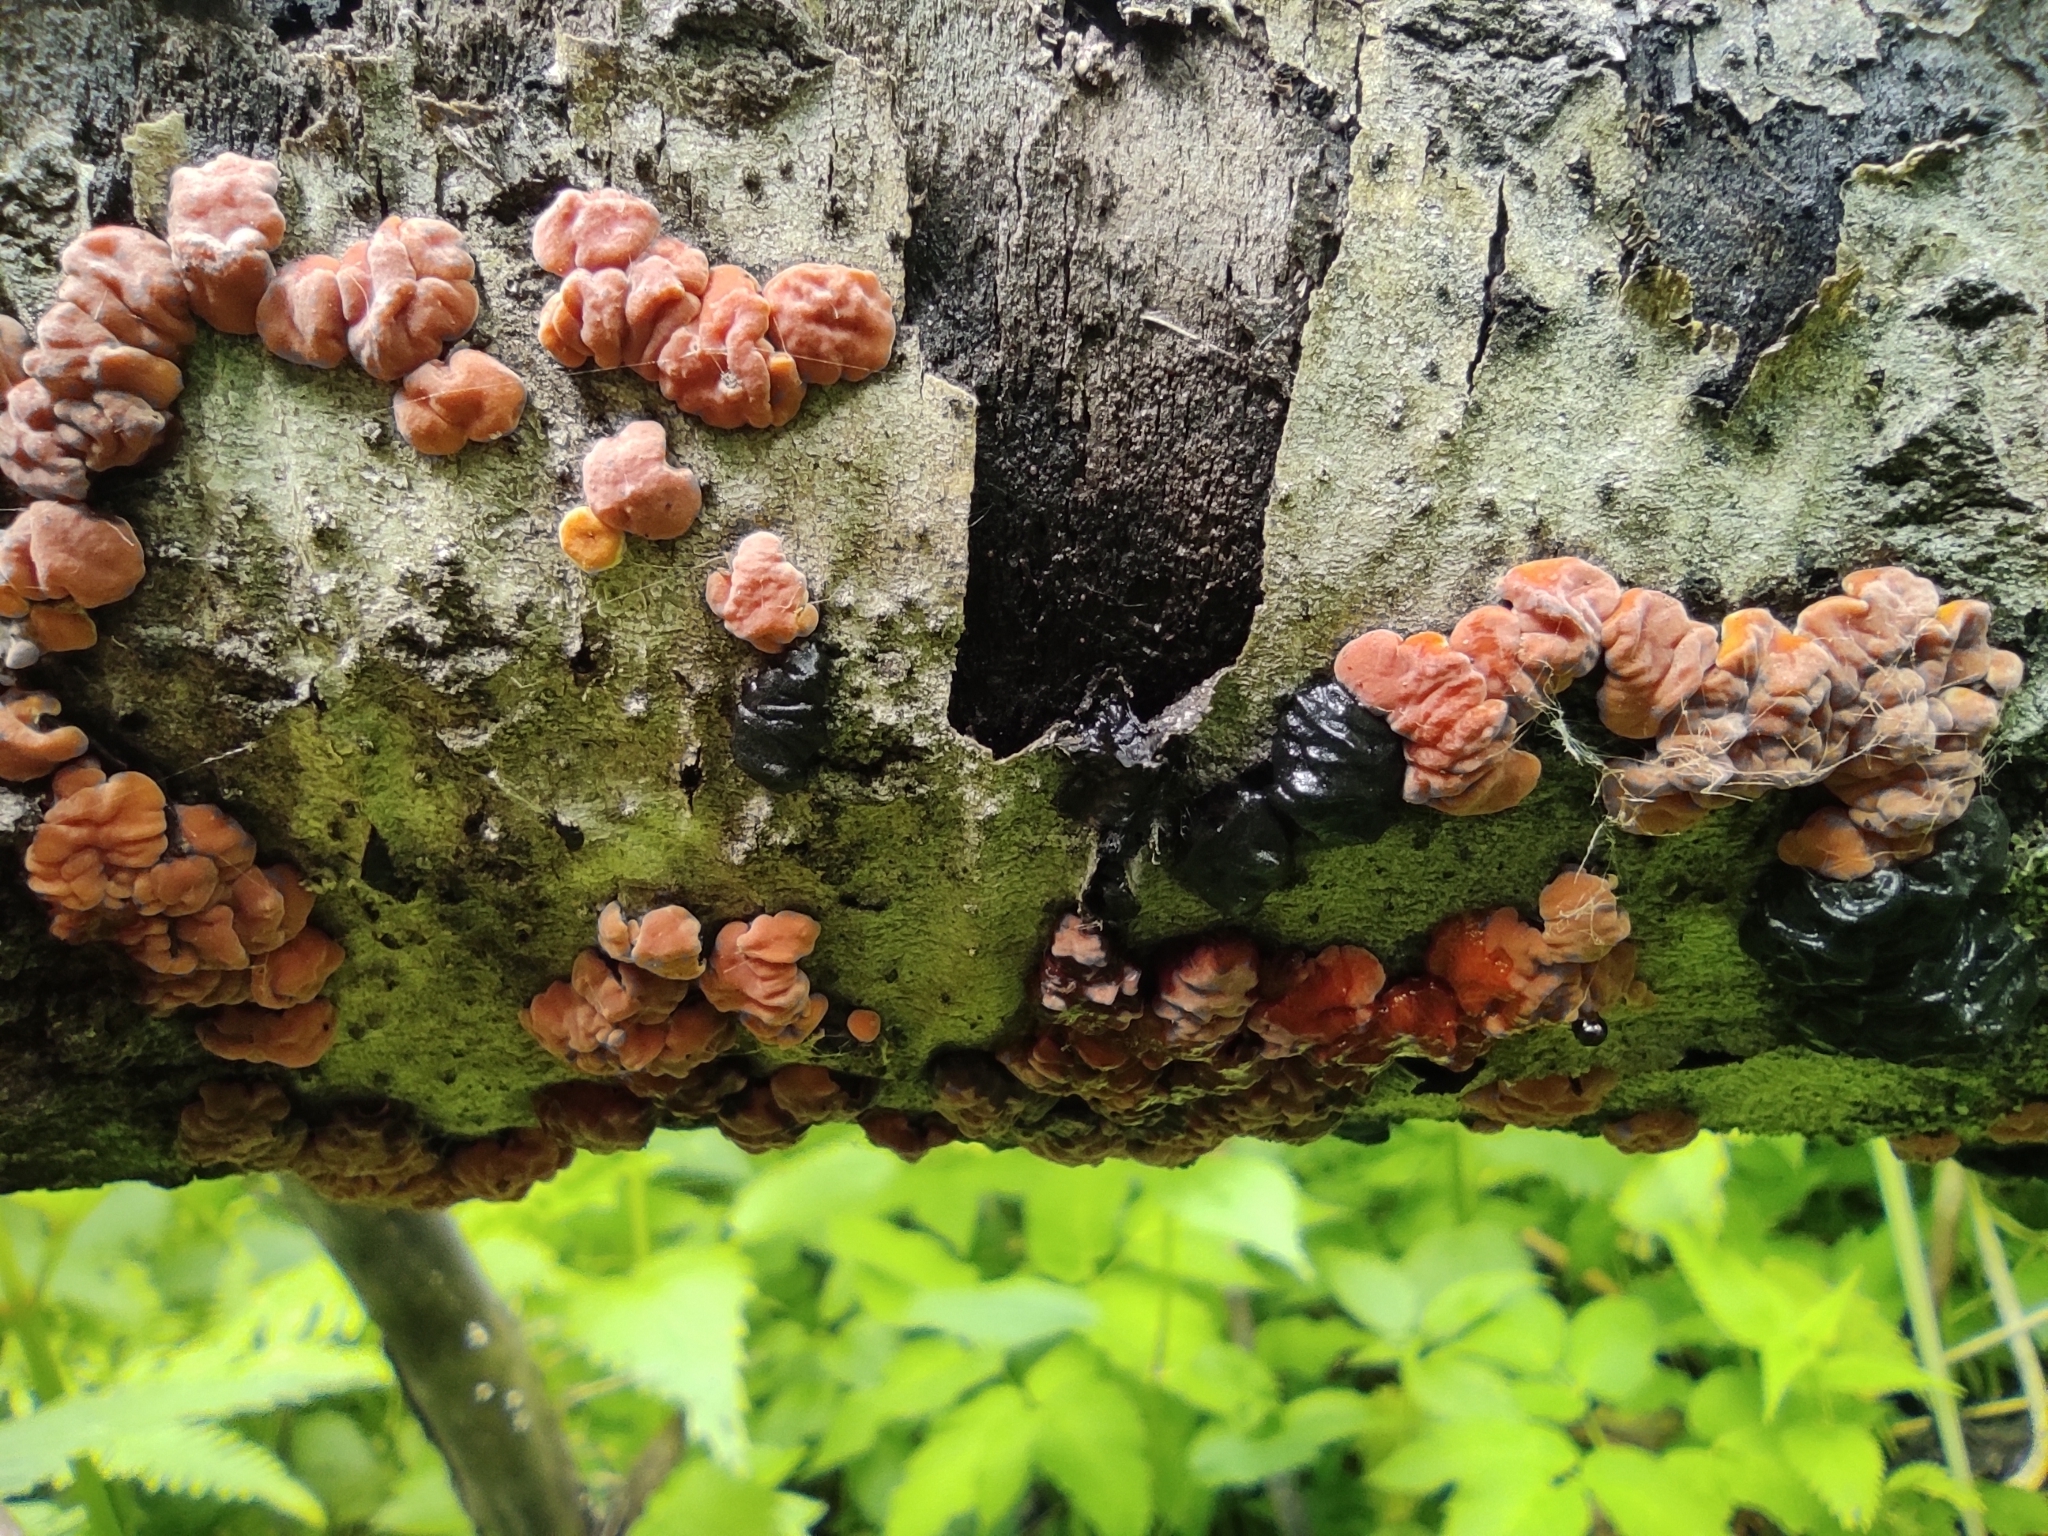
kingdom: Fungi
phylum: Basidiomycota
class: Agaricomycetes
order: Russulales
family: Peniophoraceae
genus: Peniophora
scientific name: Peniophora rufa
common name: Red tree brain fungus
